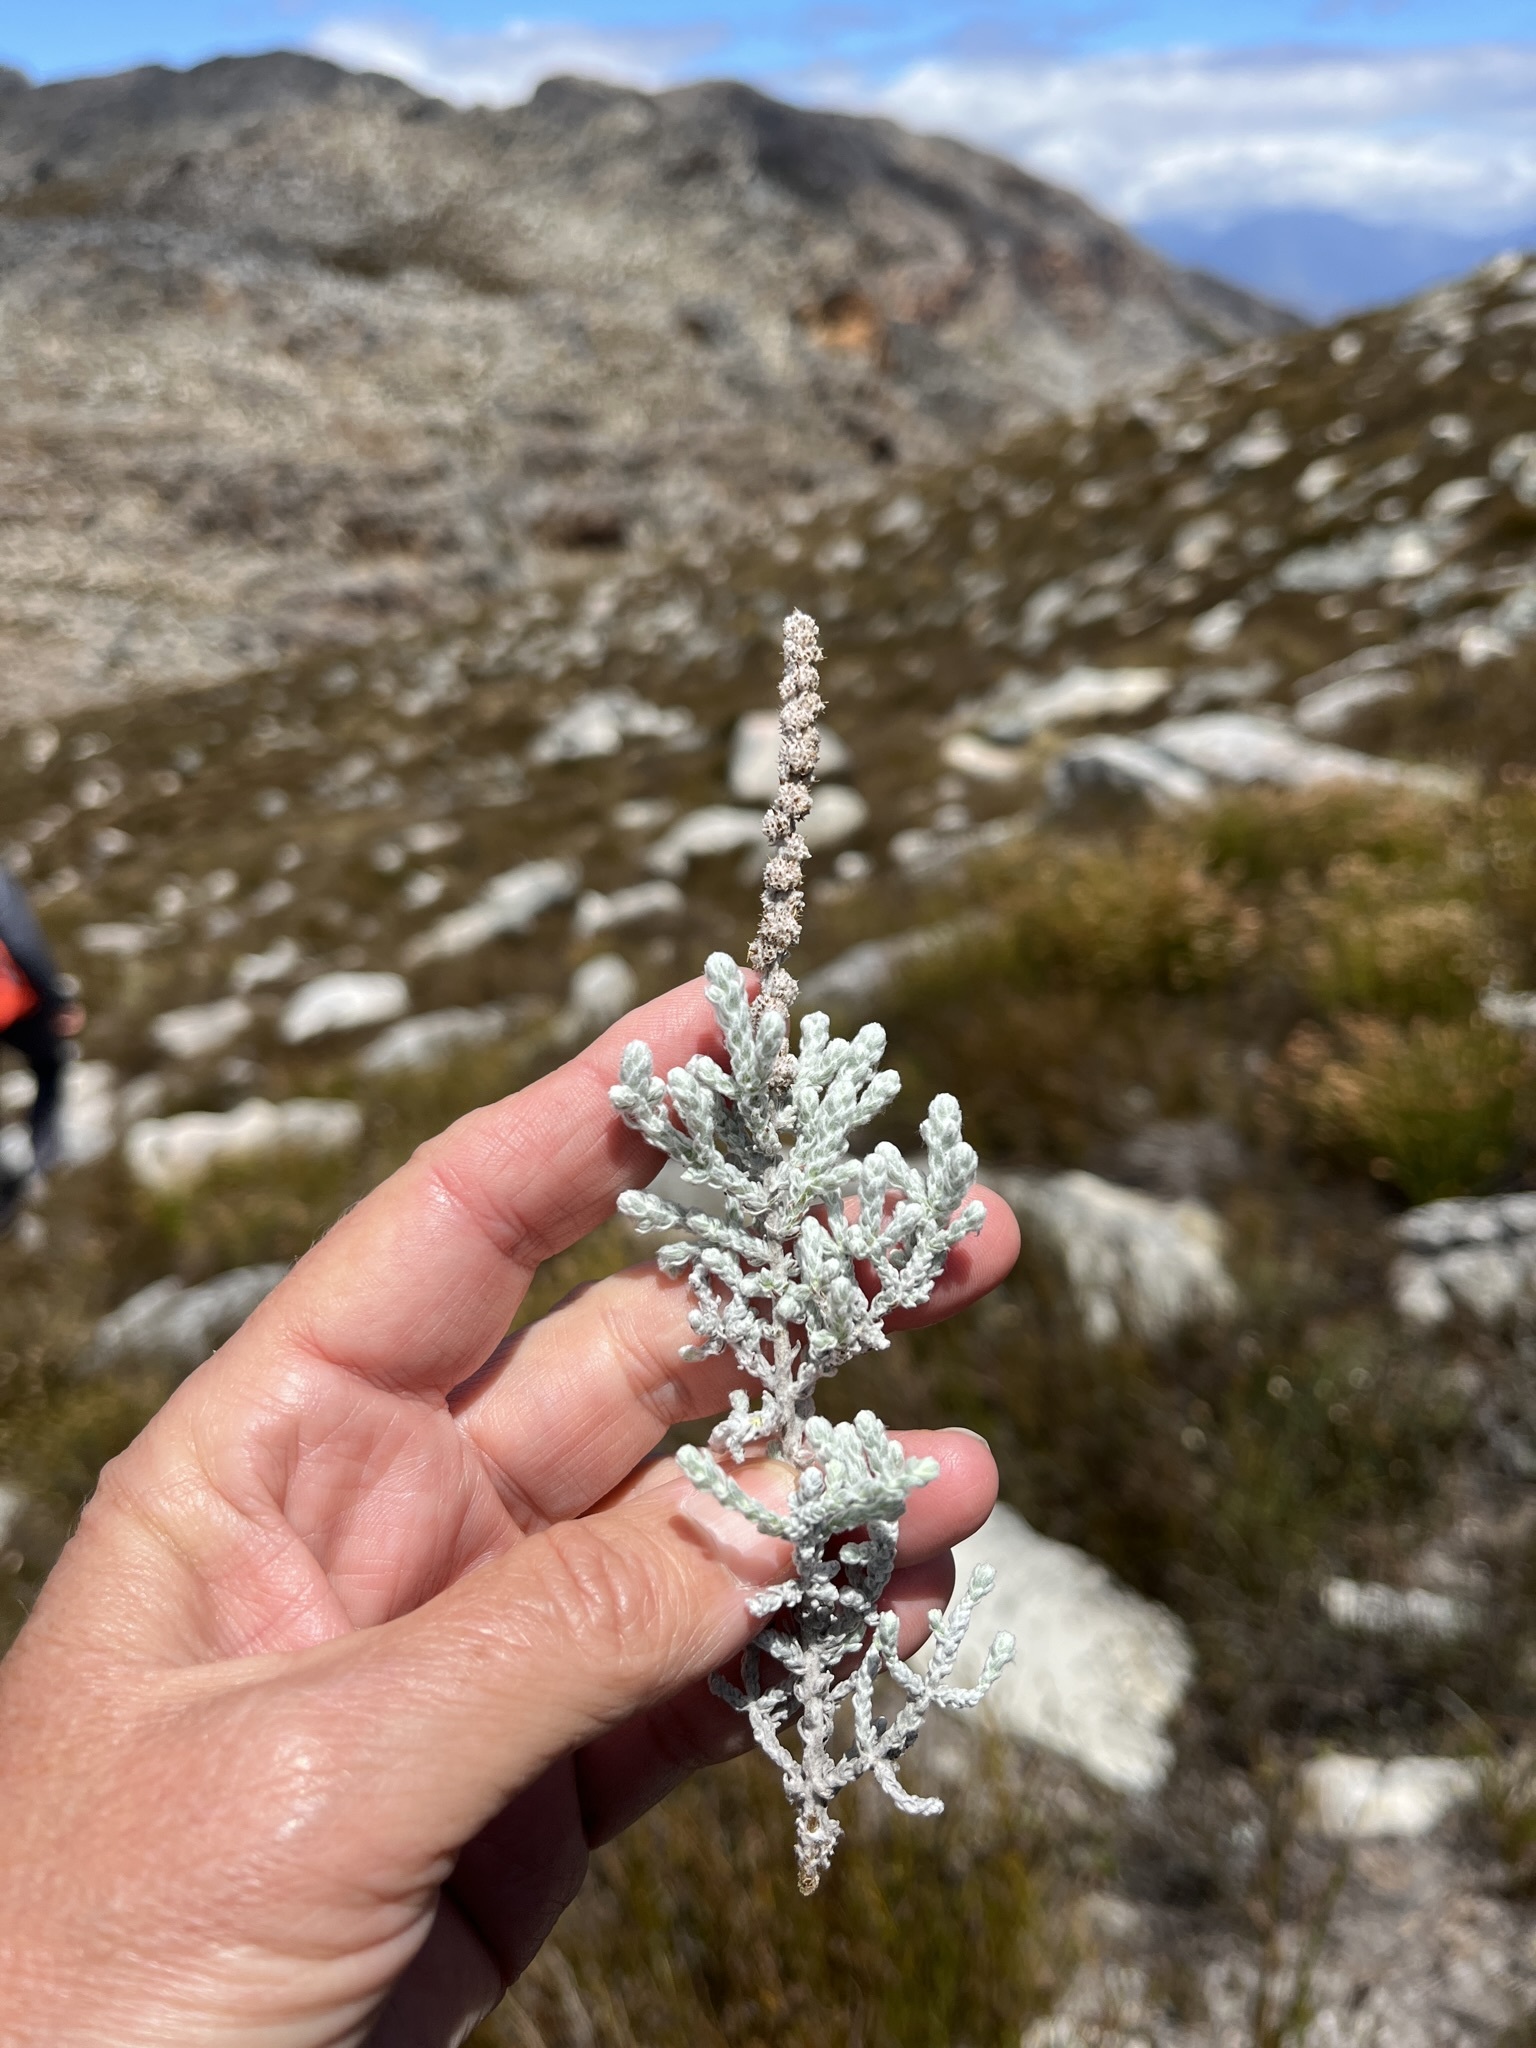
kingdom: Plantae
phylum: Tracheophyta
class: Magnoliopsida
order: Asterales
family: Asteraceae
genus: Seriphium
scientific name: Seriphium plumosum
